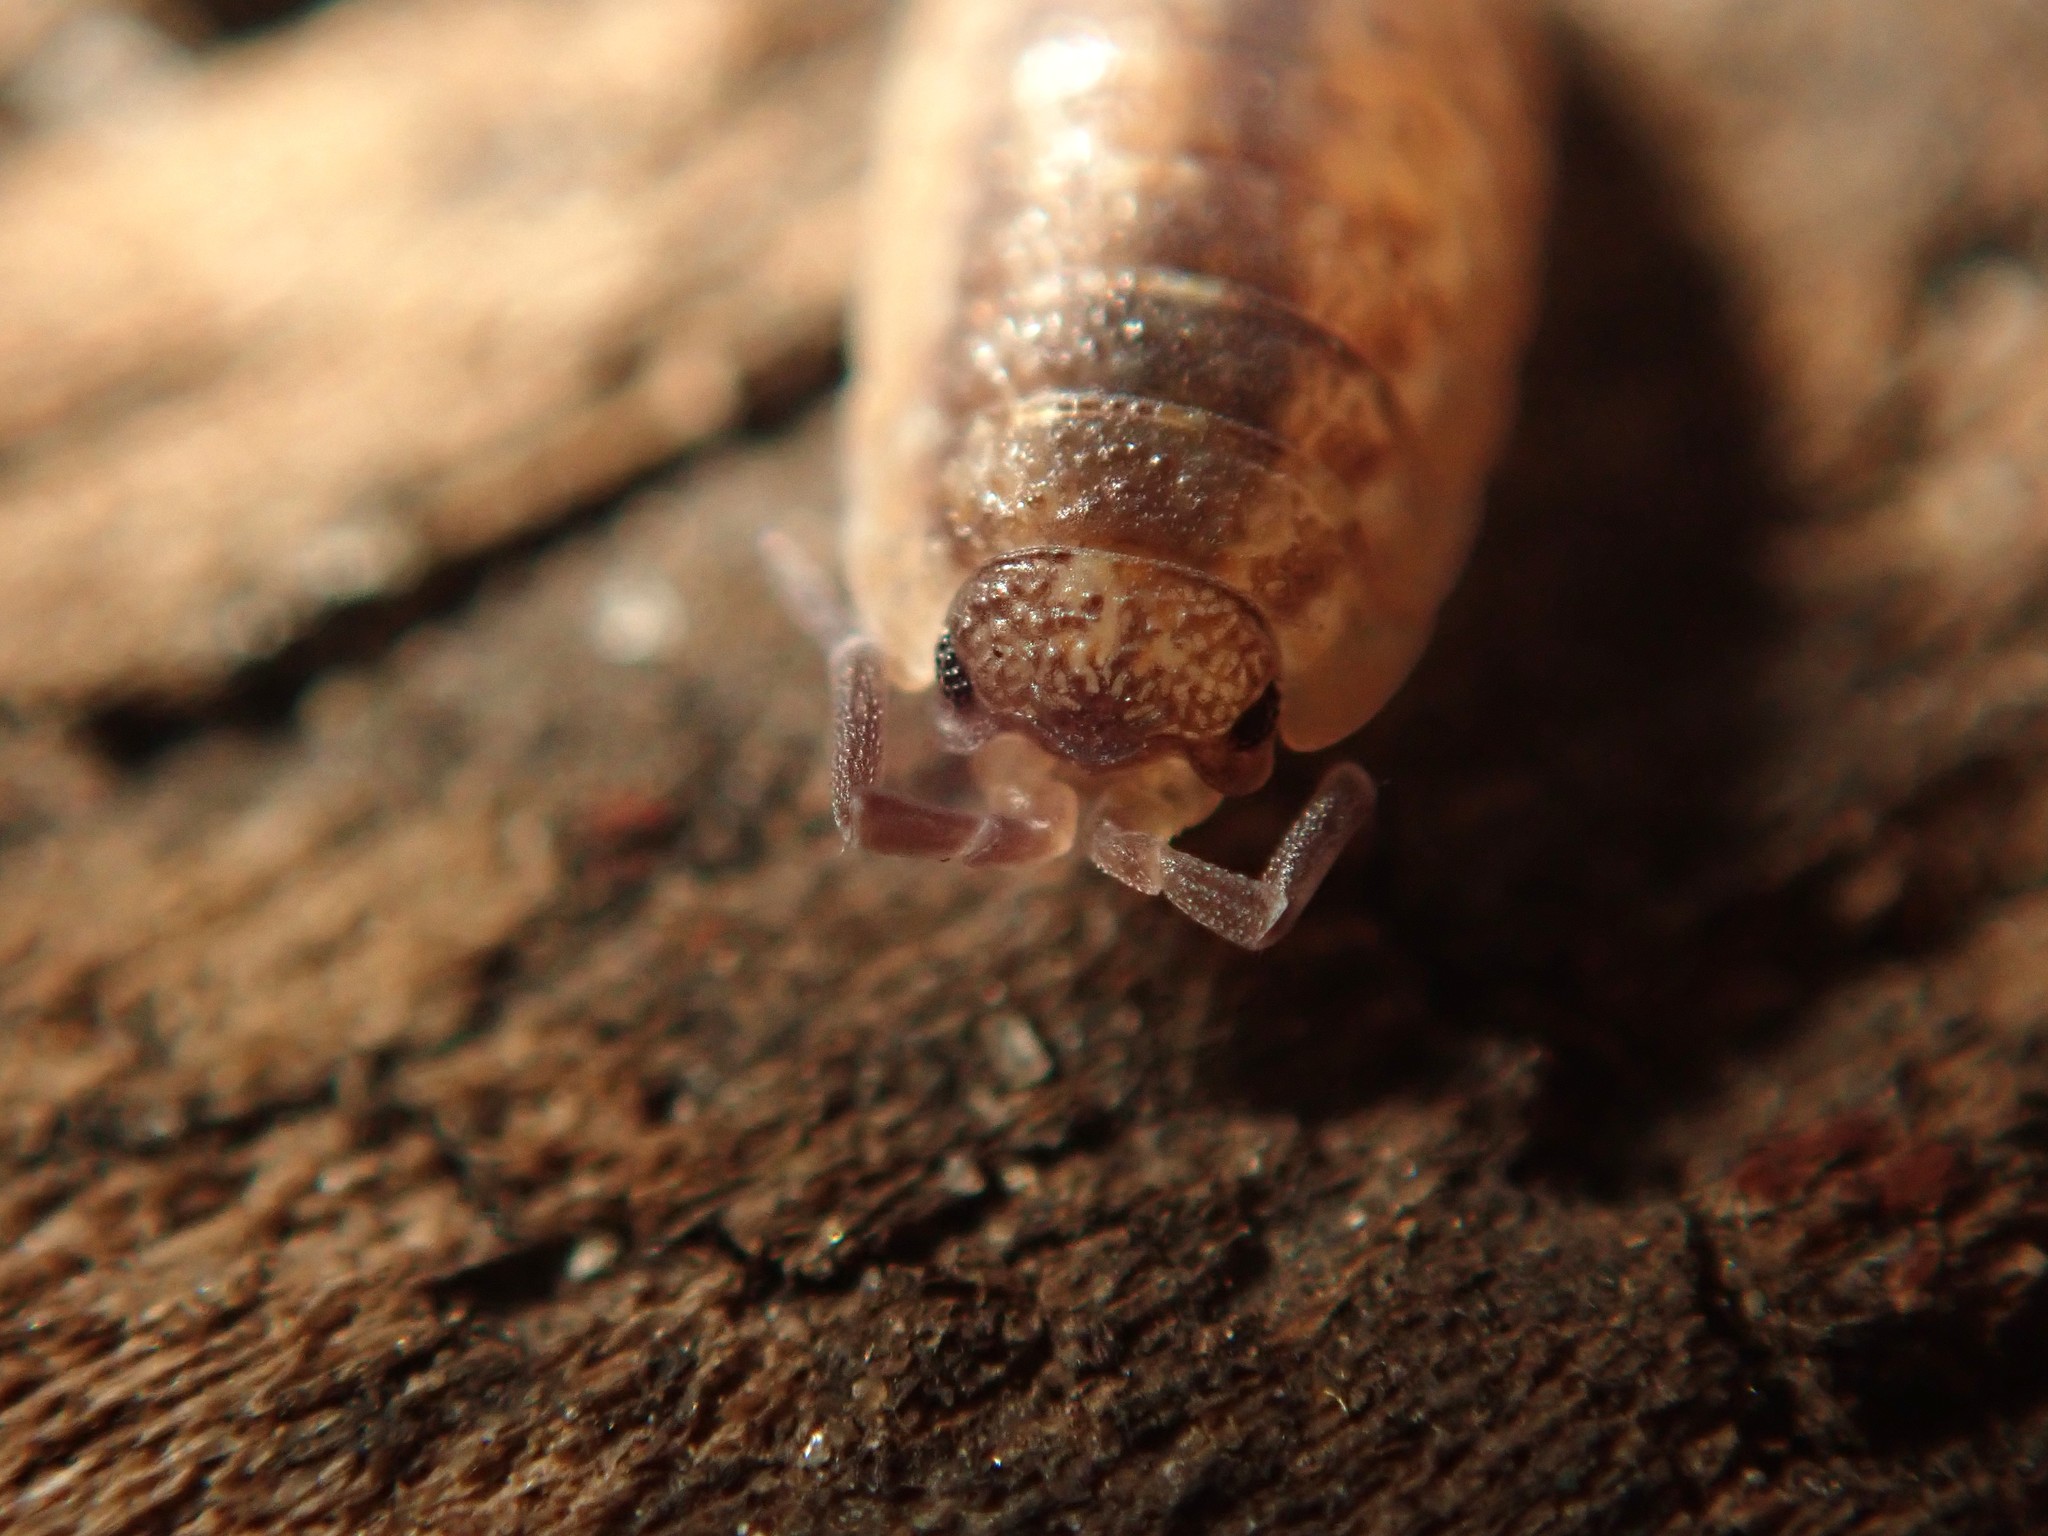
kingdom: Animalia
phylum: Arthropoda
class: Malacostraca
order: Isopoda
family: Porcellionidae
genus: Porcellio
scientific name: Porcellio scaber
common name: Common rough woodlouse
